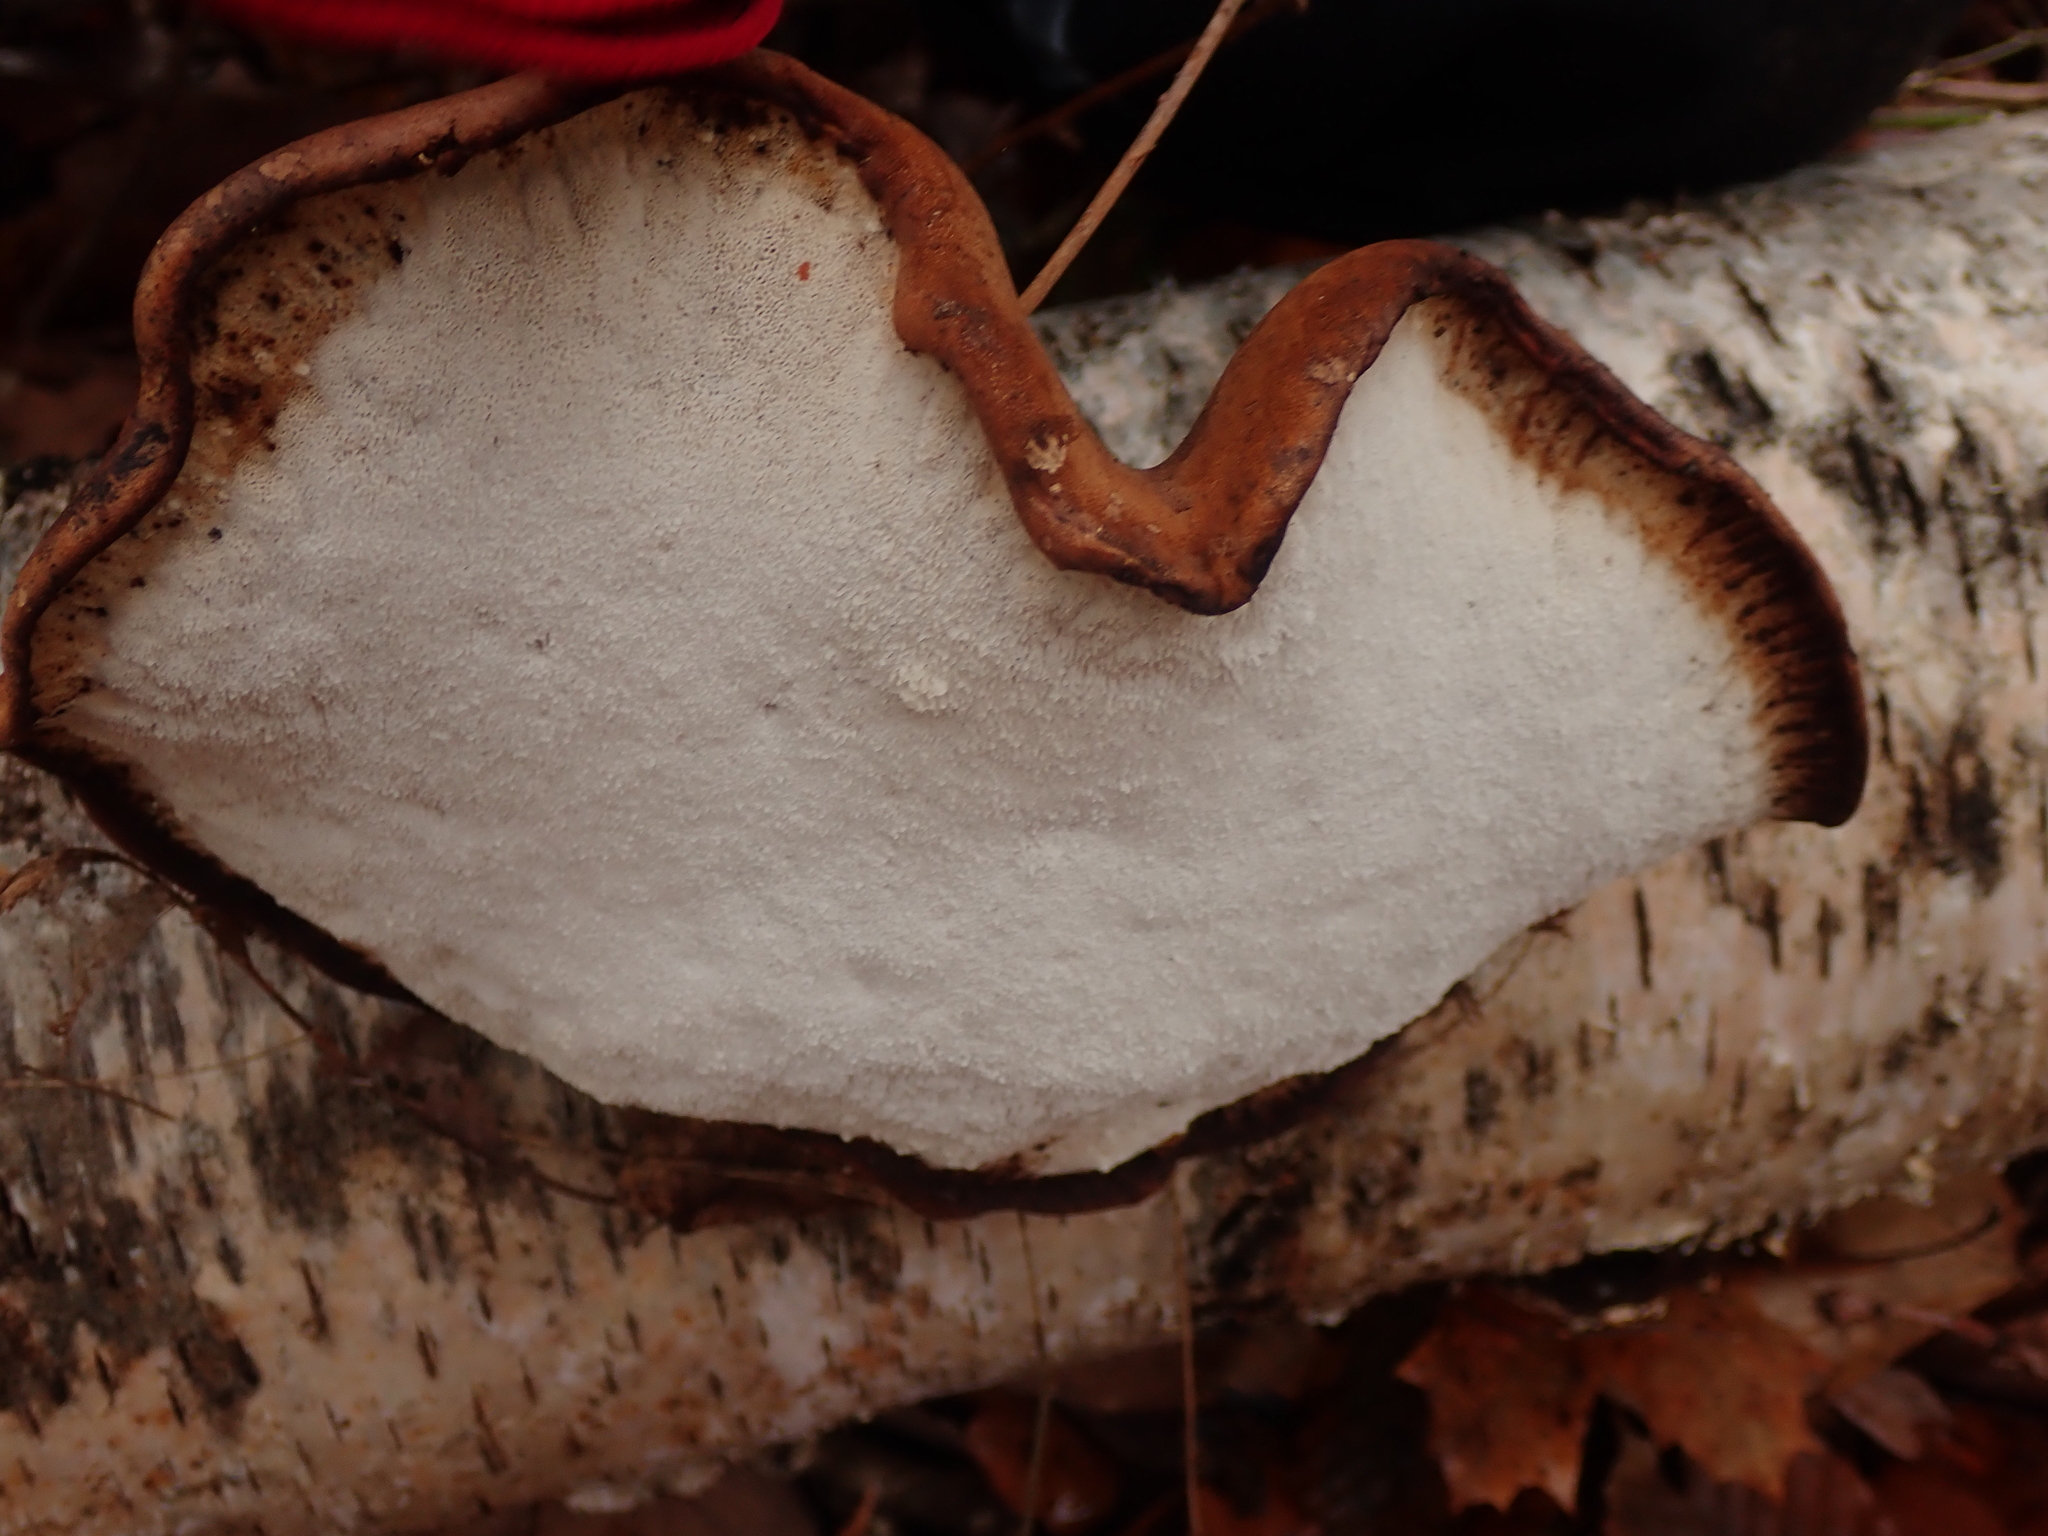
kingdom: Fungi
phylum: Basidiomycota
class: Agaricomycetes
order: Polyporales
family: Fomitopsidaceae
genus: Fomitopsis
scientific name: Fomitopsis betulina
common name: Birch polypore
